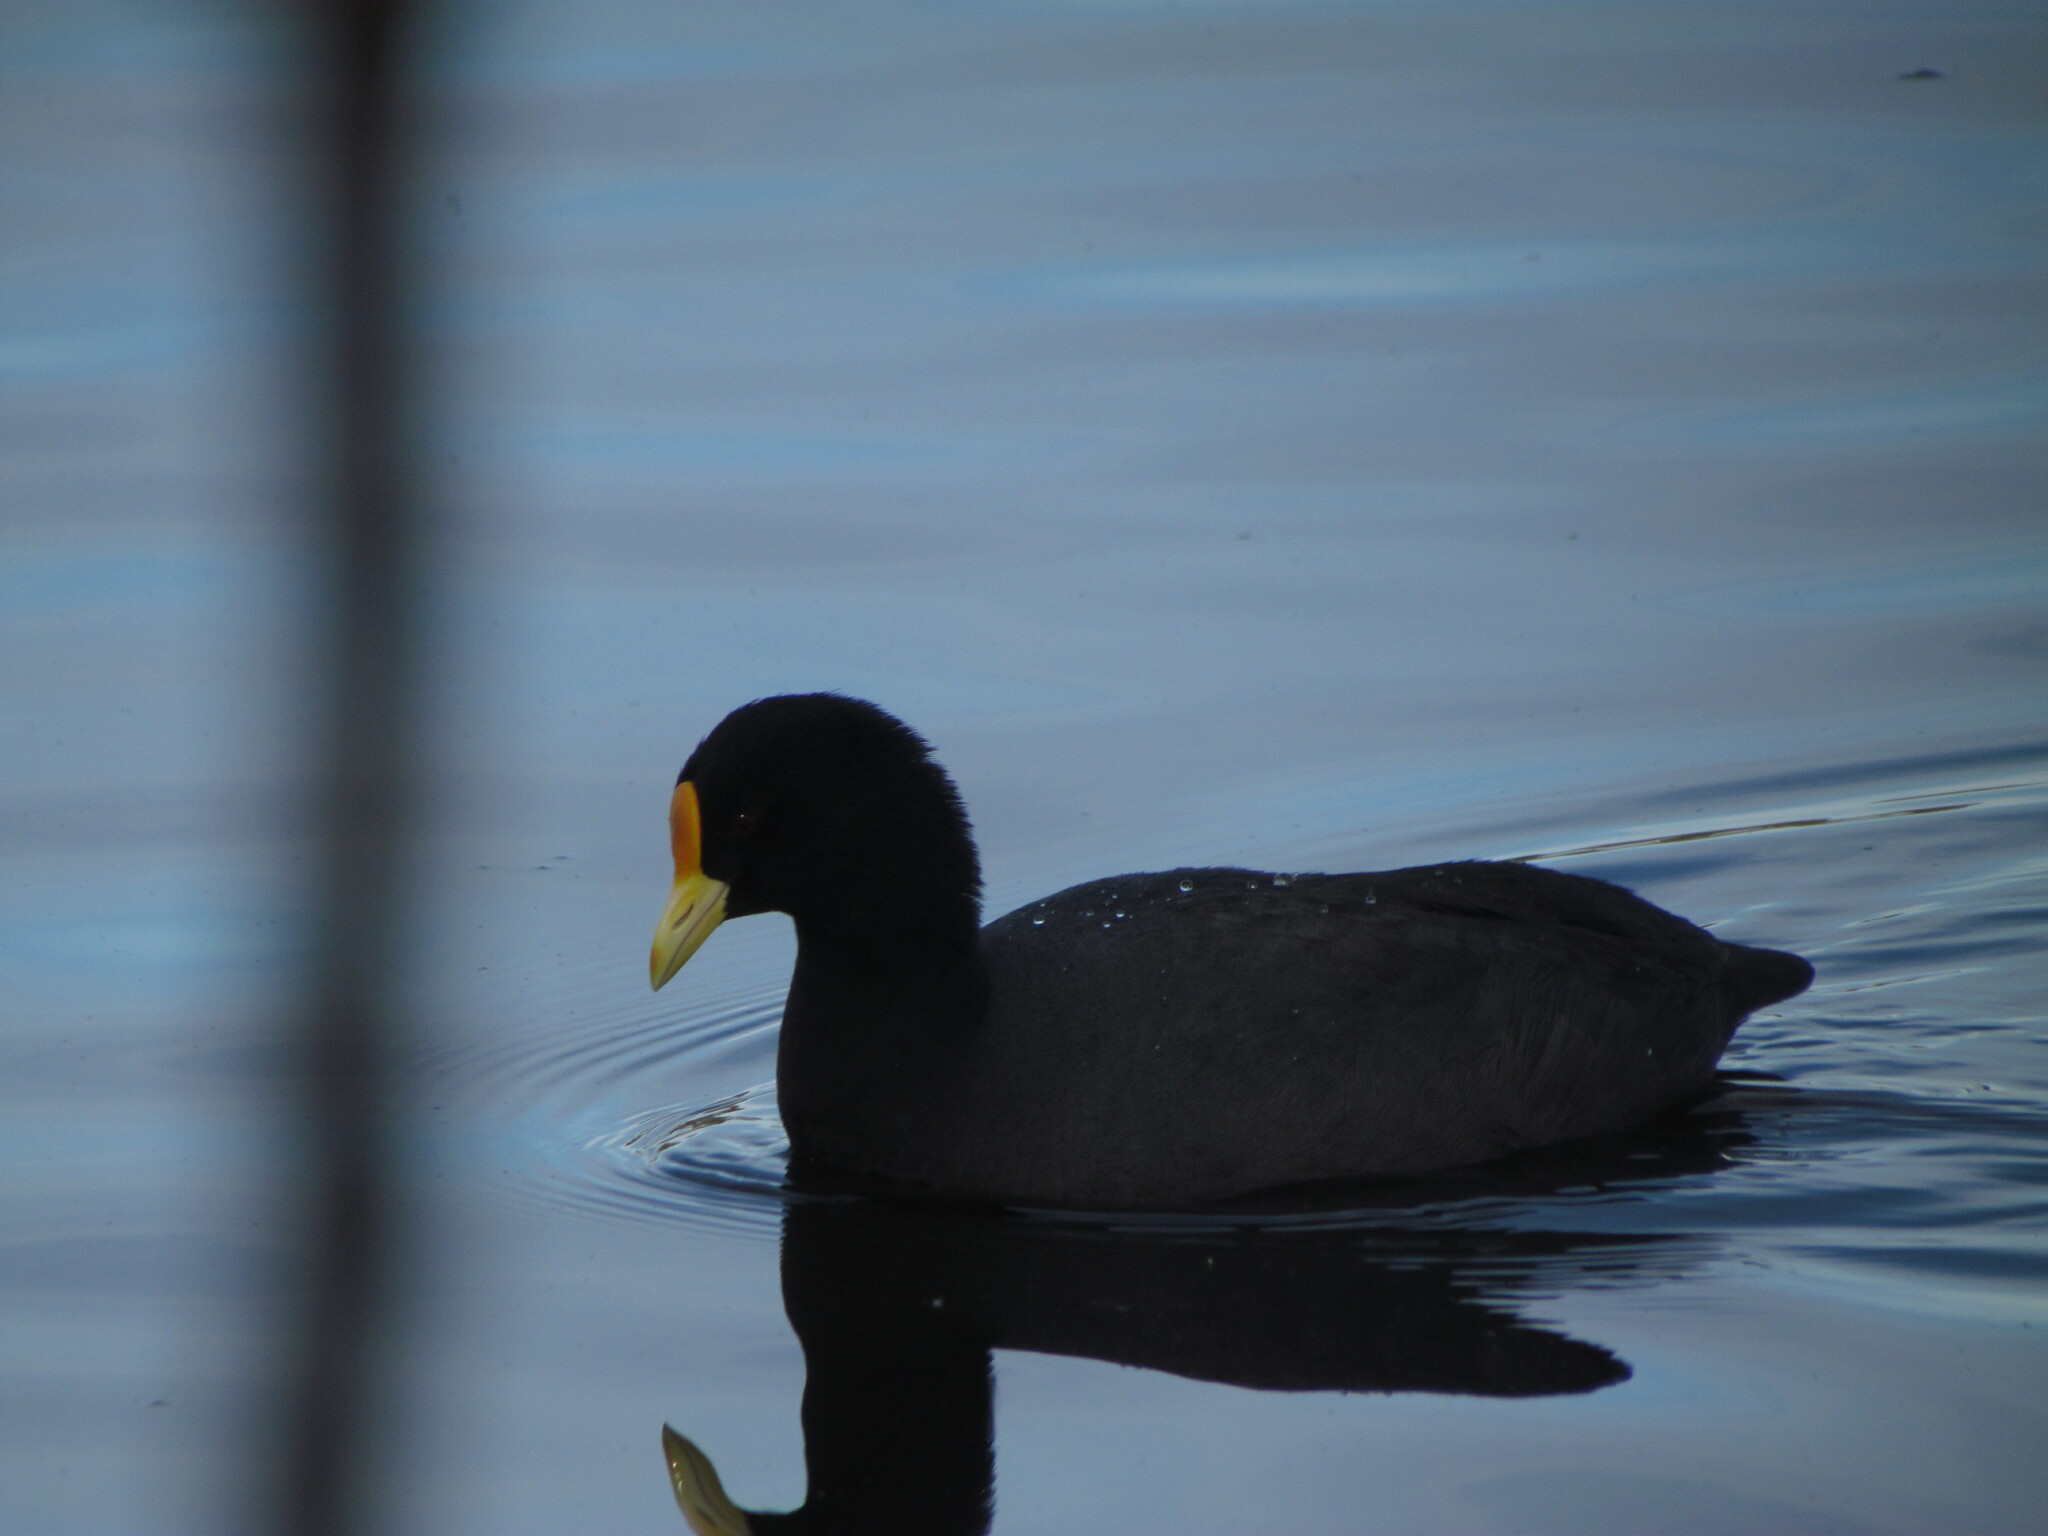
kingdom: Animalia
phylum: Chordata
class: Aves
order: Gruiformes
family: Rallidae
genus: Fulica
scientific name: Fulica leucoptera
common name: White-winged coot
